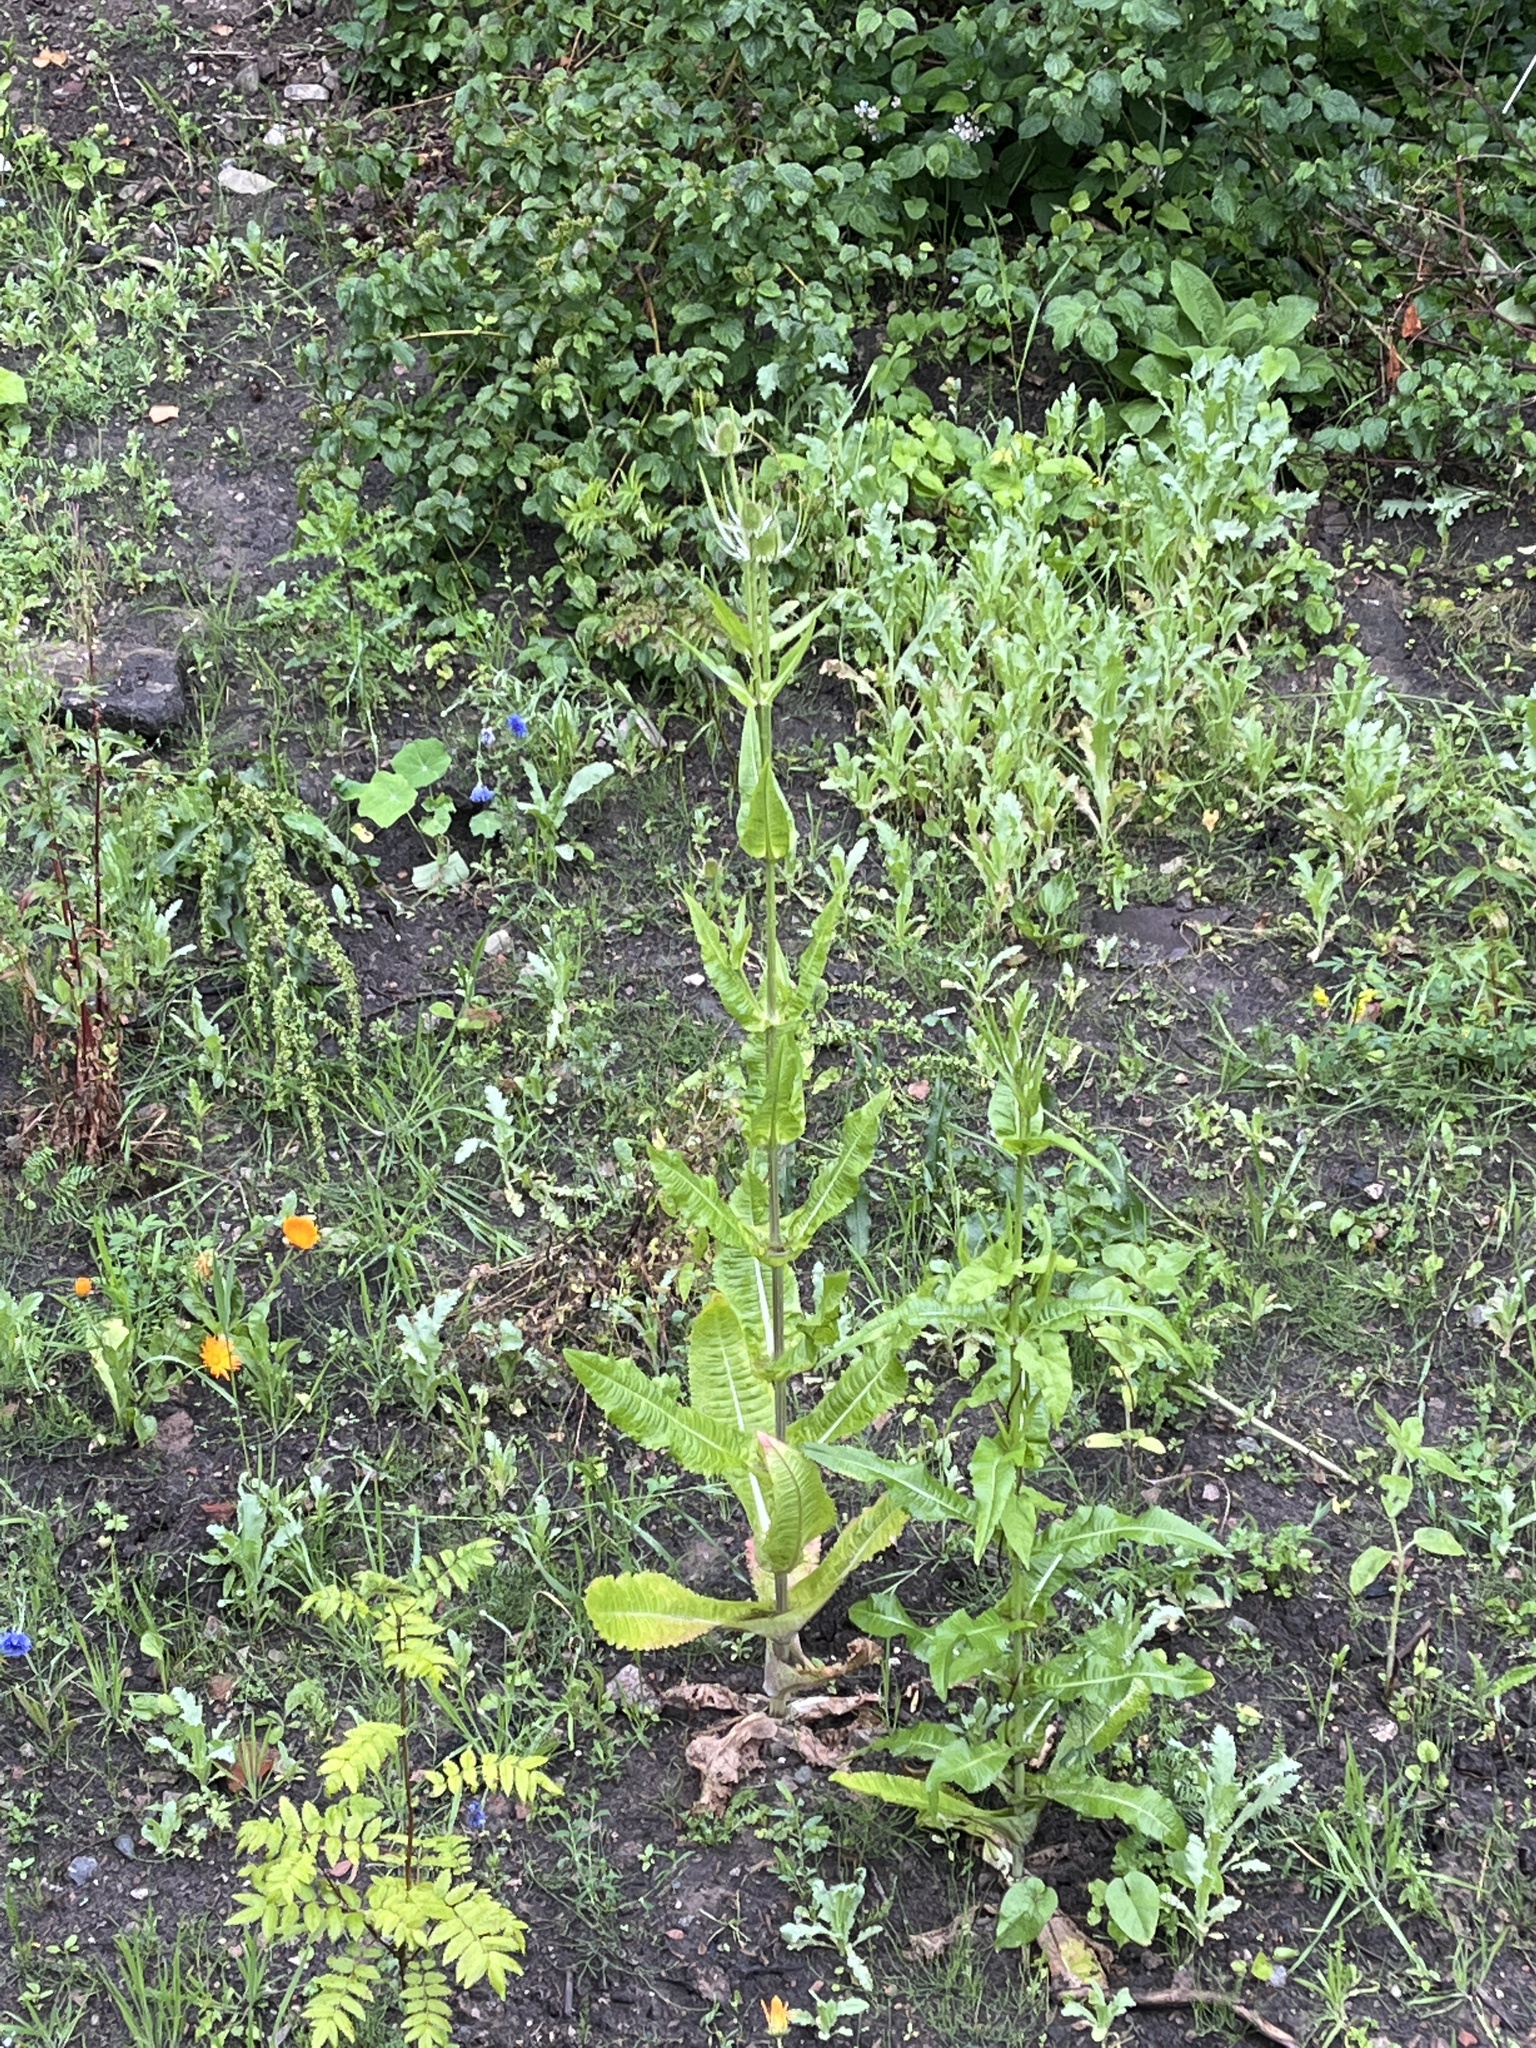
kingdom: Plantae
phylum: Tracheophyta
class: Magnoliopsida
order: Dipsacales
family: Caprifoliaceae
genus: Dipsacus
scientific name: Dipsacus fullonum
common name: Teasel
